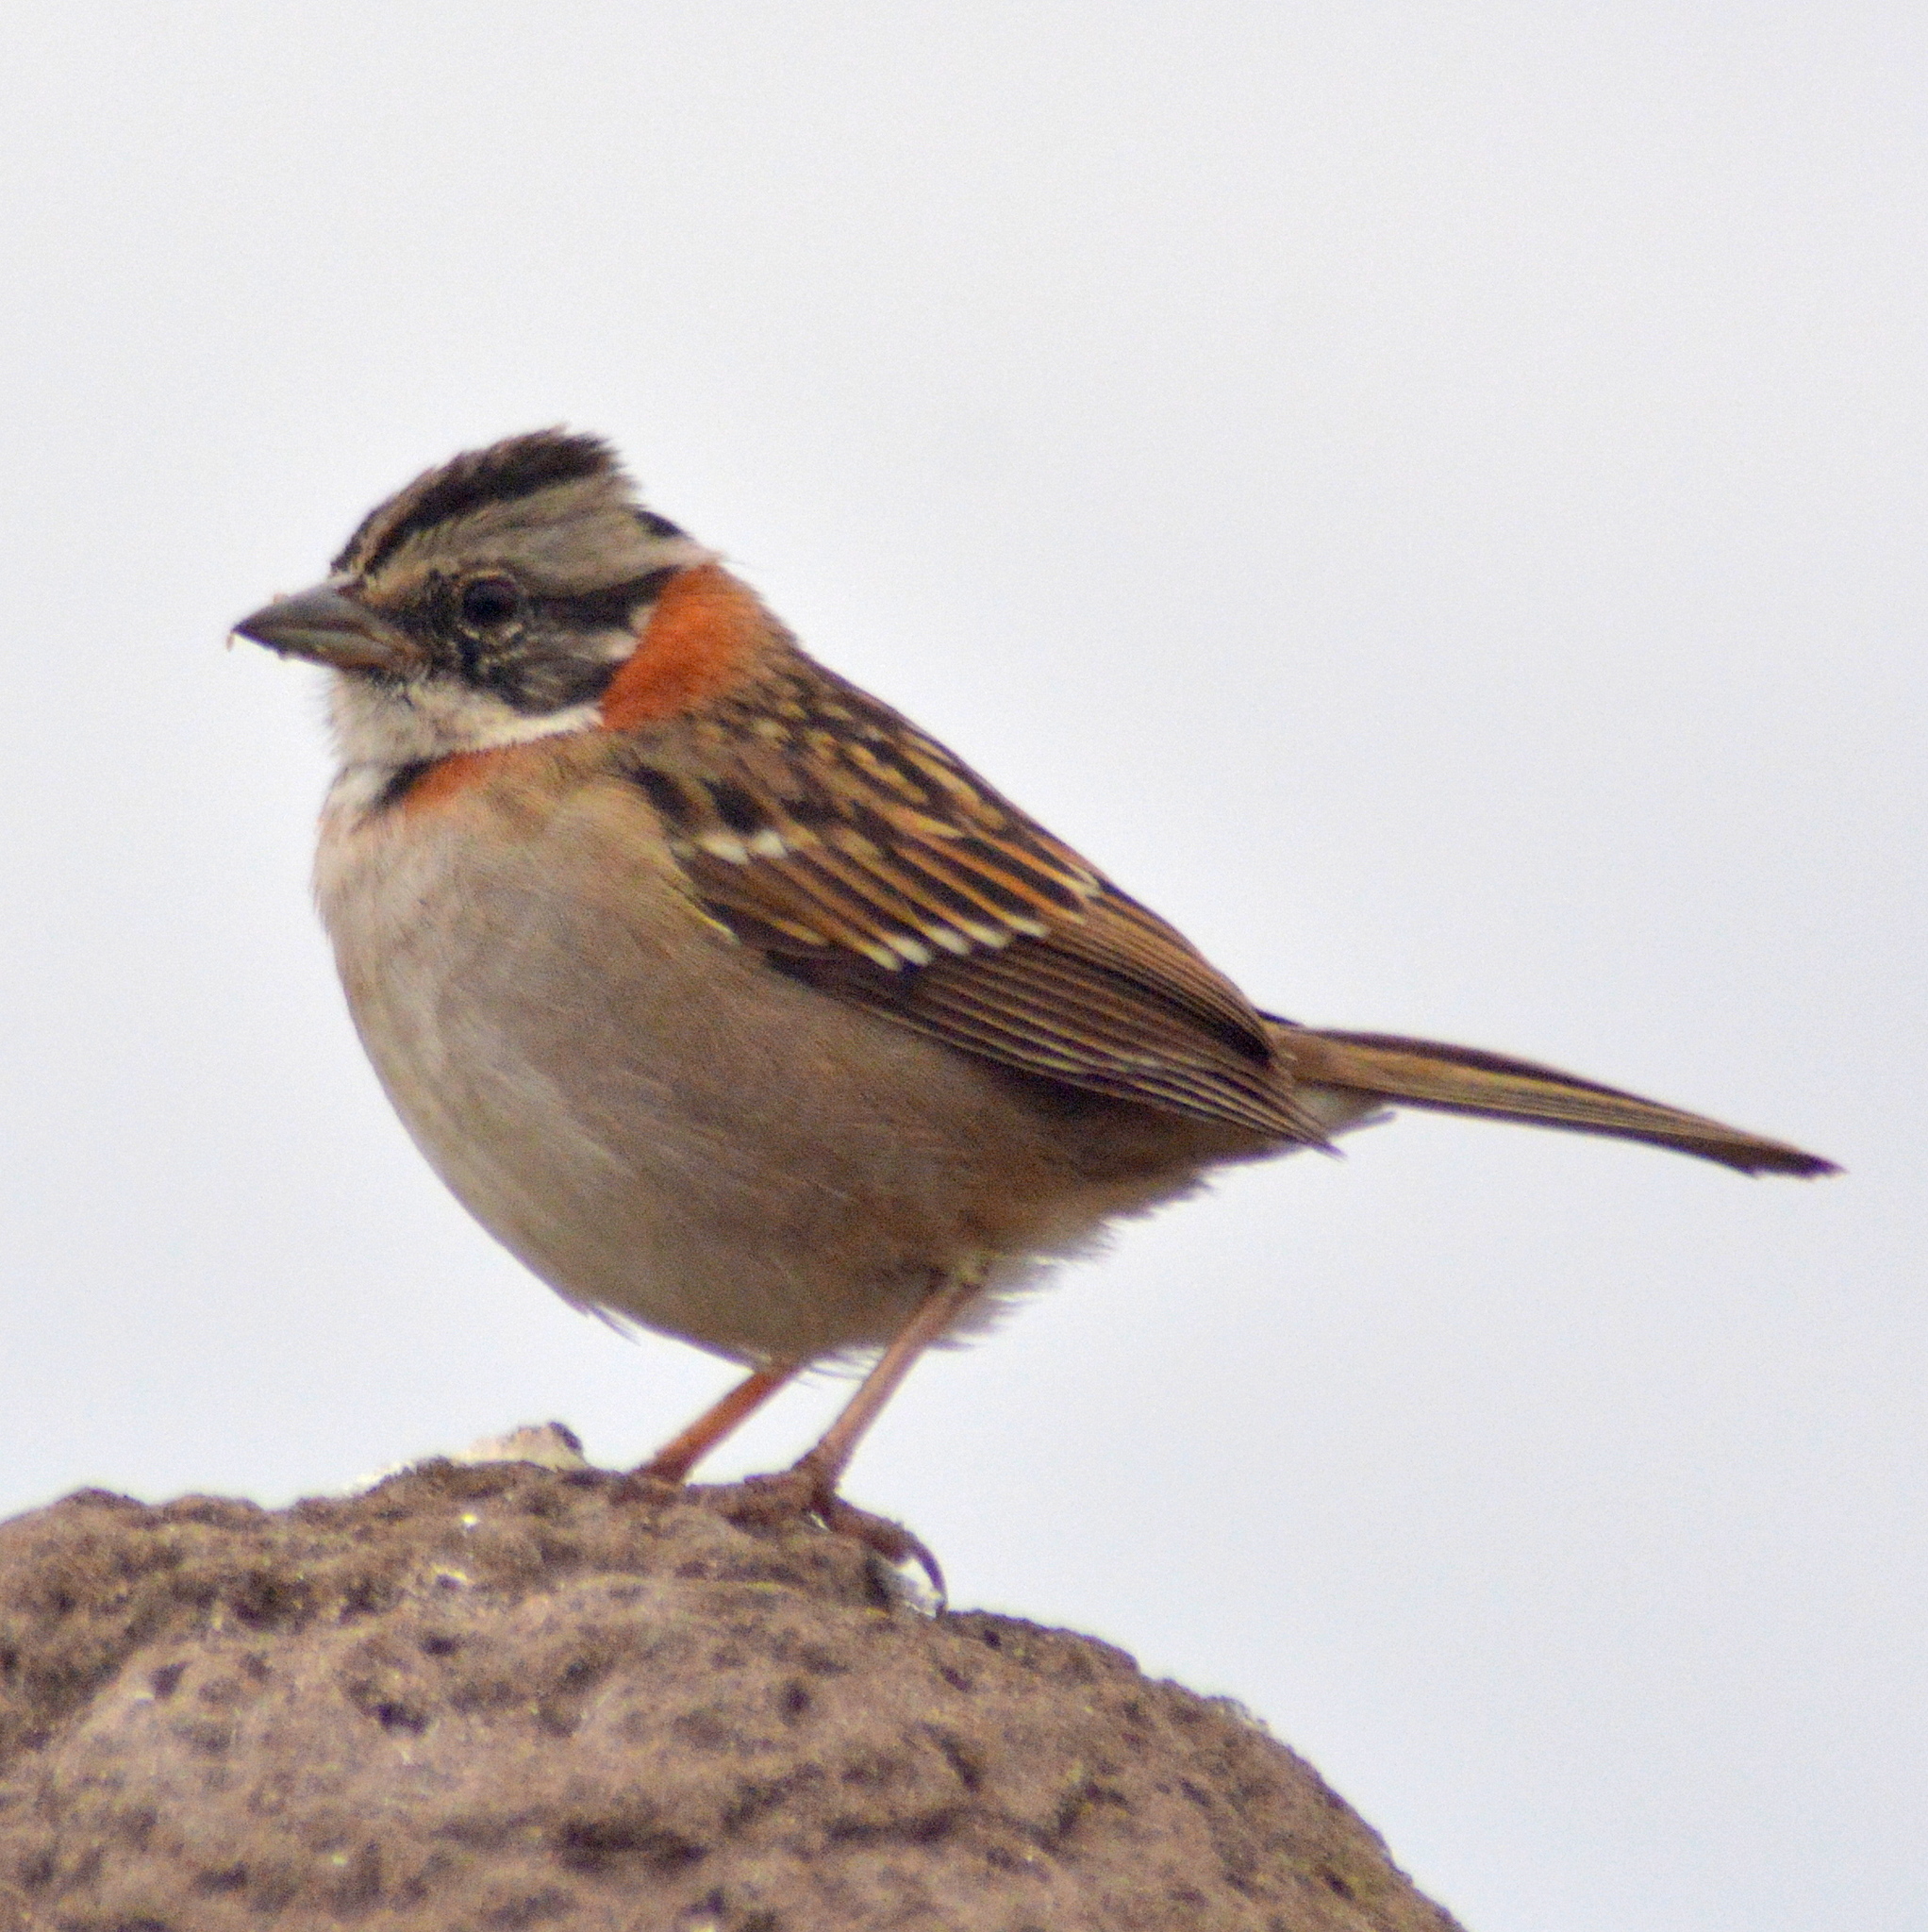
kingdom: Animalia
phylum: Chordata
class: Aves
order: Passeriformes
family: Passerellidae
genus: Zonotrichia
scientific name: Zonotrichia capensis
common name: Rufous-collared sparrow
